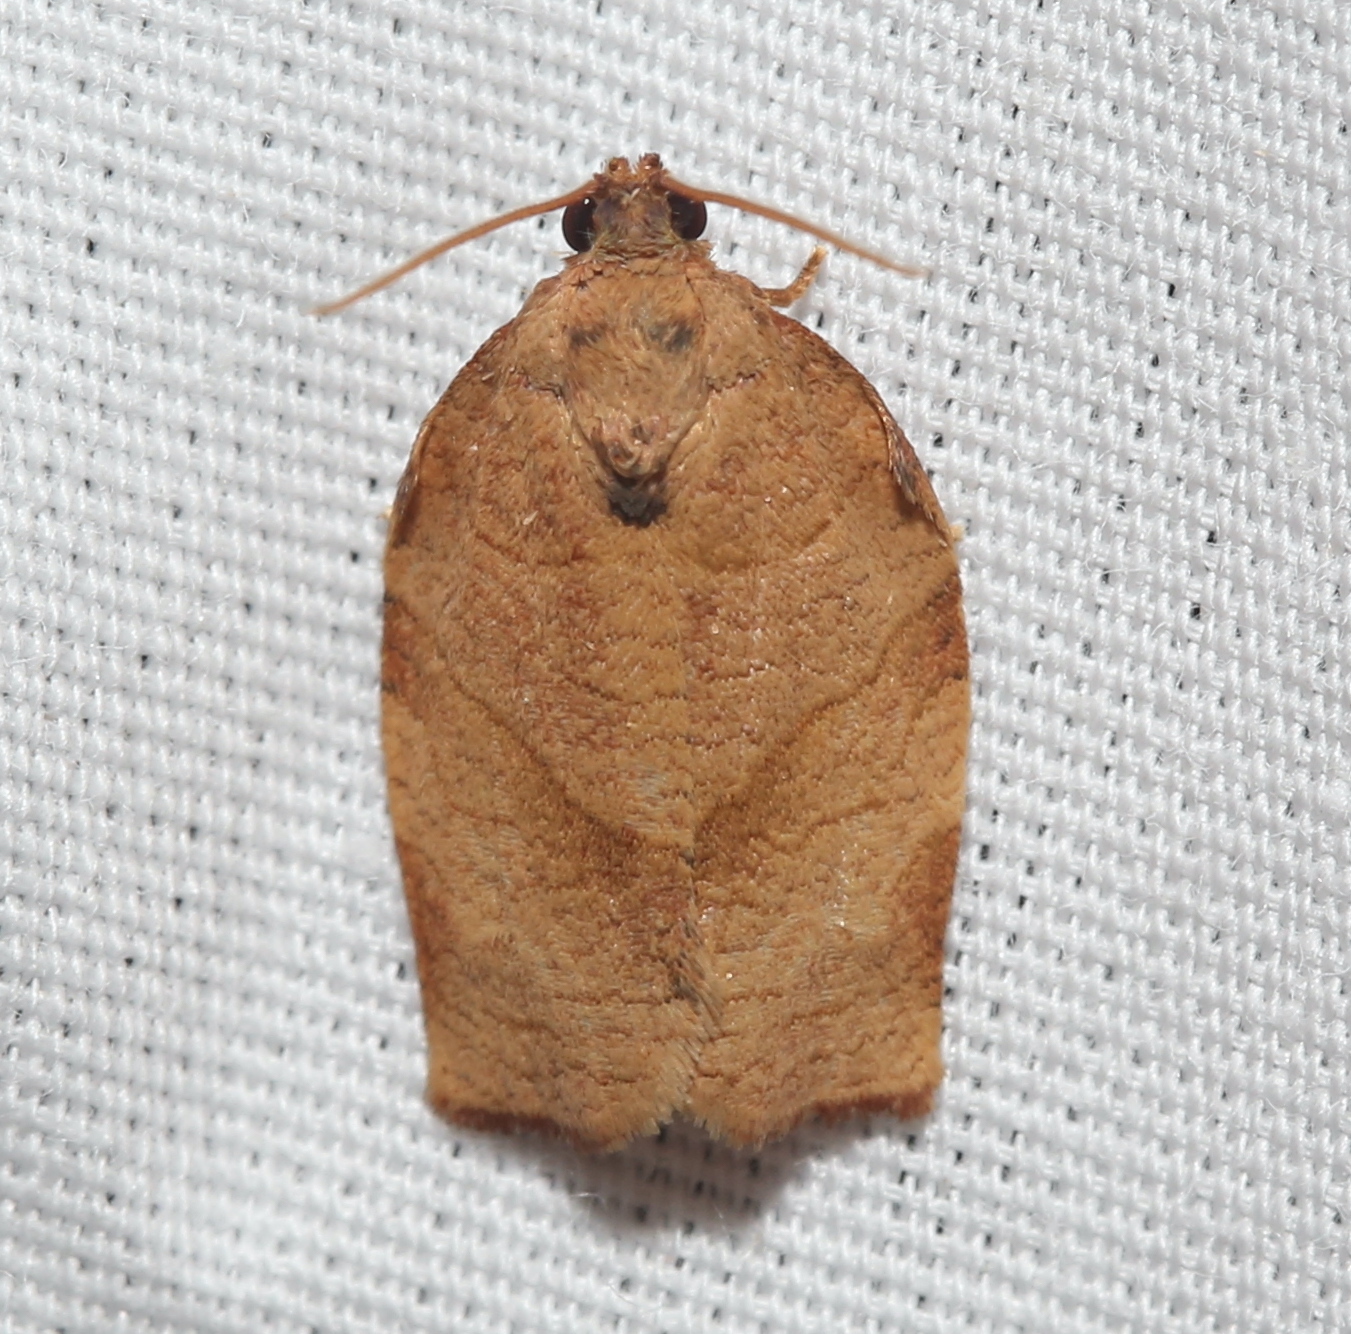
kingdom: Animalia
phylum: Arthropoda
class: Insecta
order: Lepidoptera
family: Tortricidae
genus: Choristoneura
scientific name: Choristoneura rosaceana
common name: Oblique-banded leafroller moth
